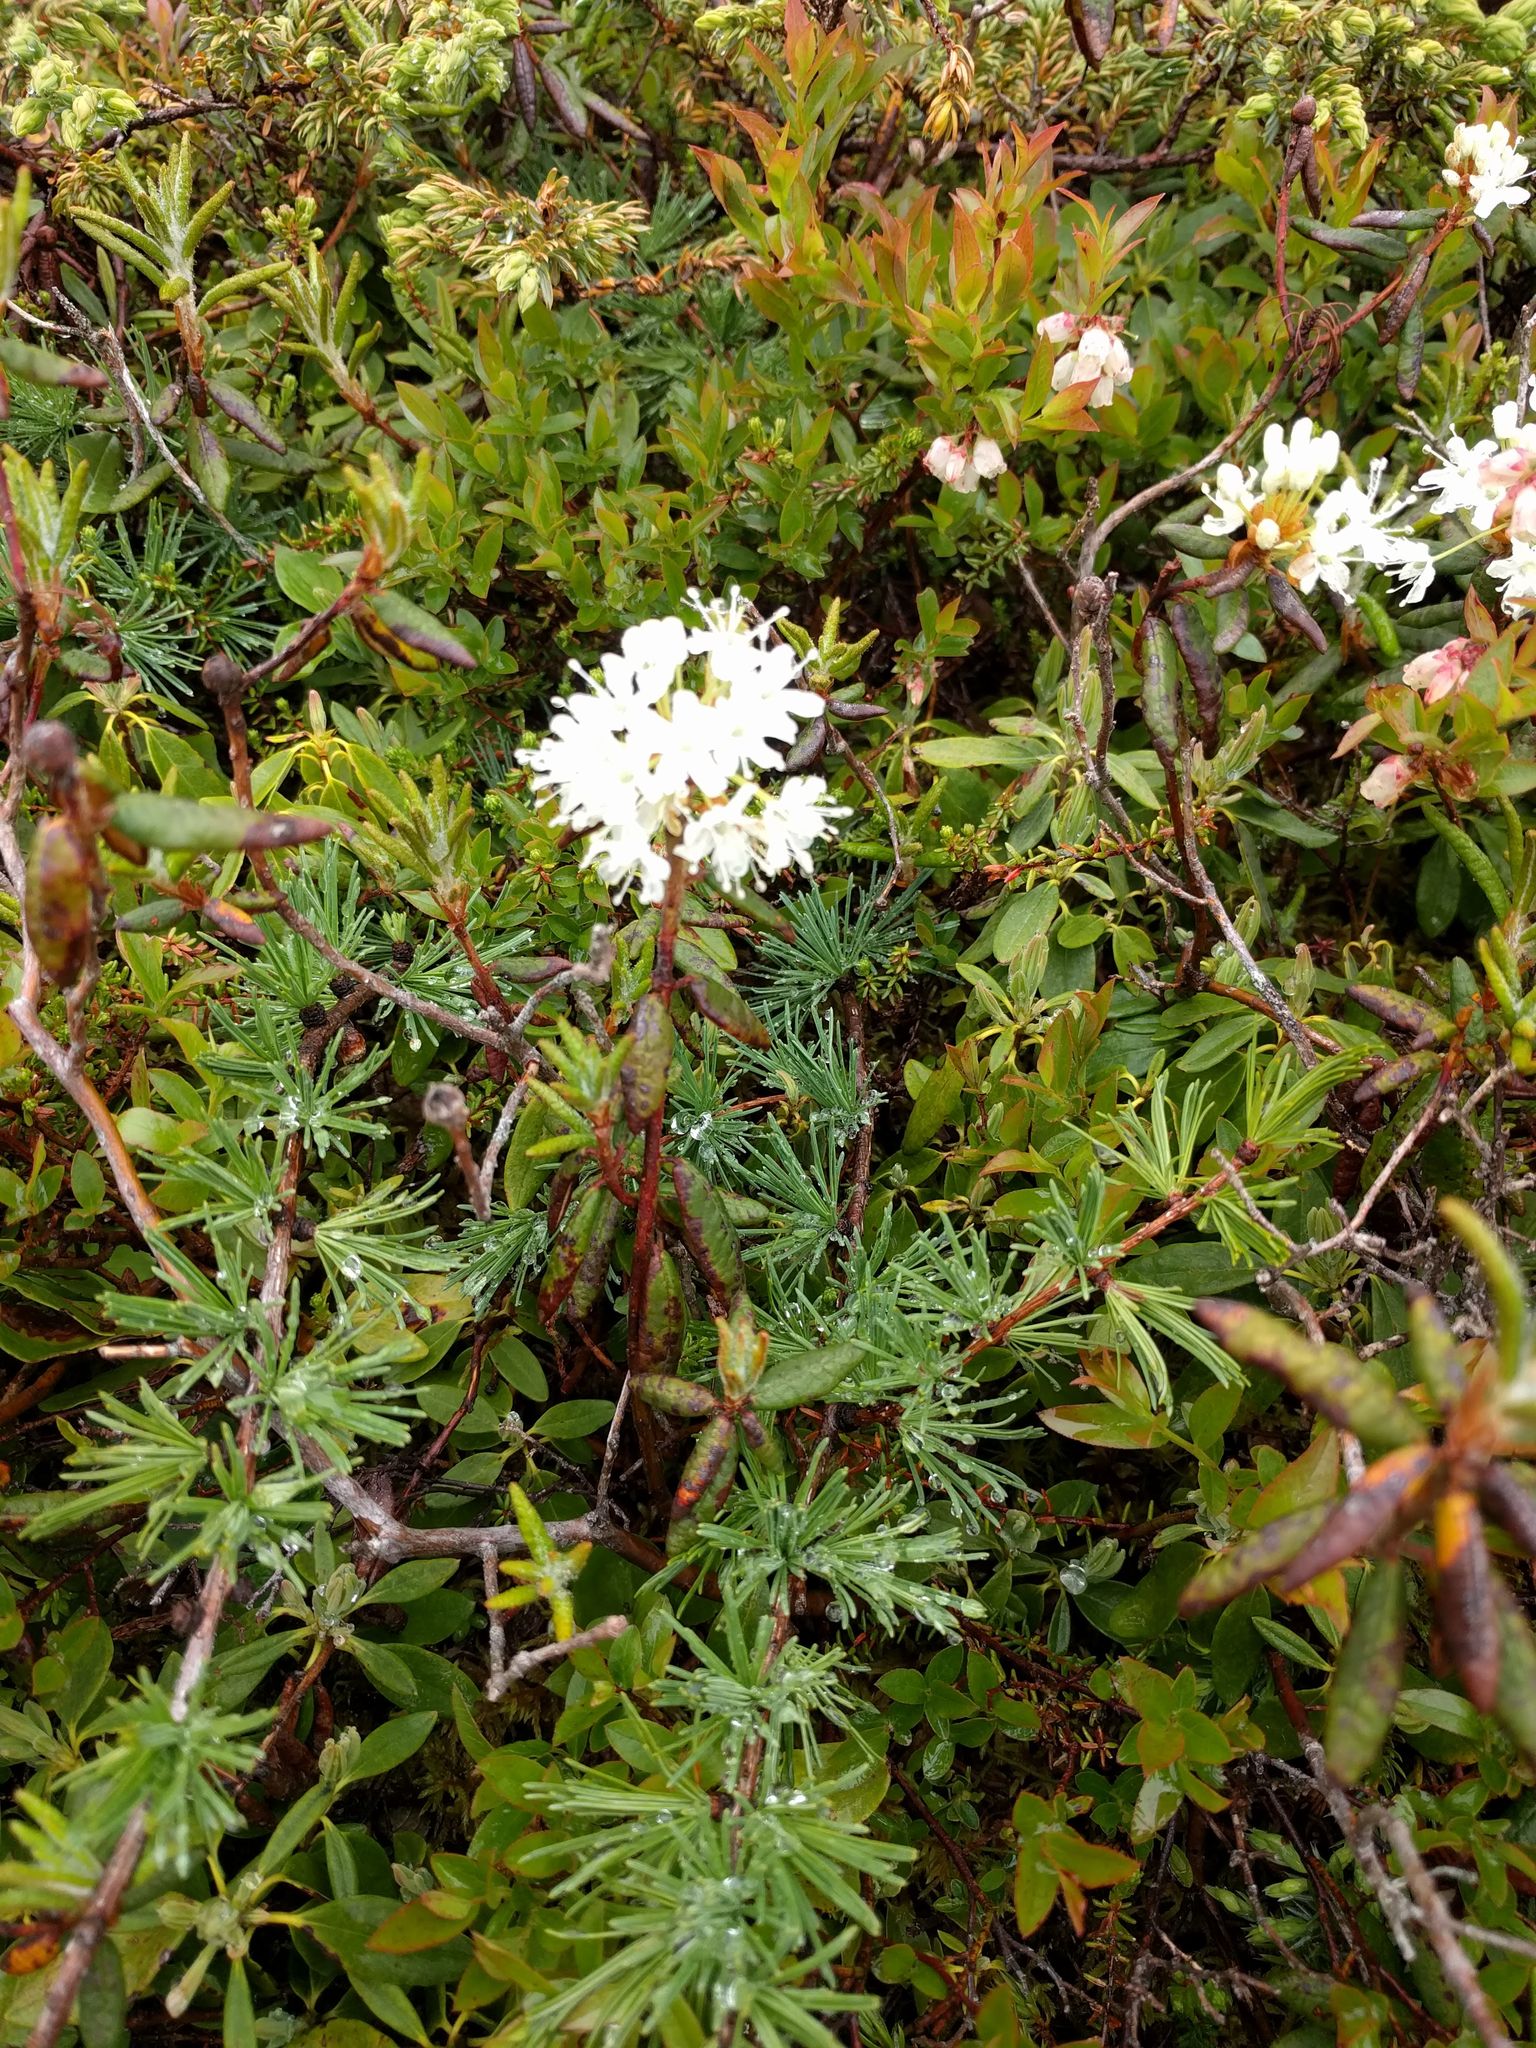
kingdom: Plantae
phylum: Tracheophyta
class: Magnoliopsida
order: Ericales
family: Ericaceae
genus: Rhododendron
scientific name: Rhododendron groenlandicum
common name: Bog labrador tea
